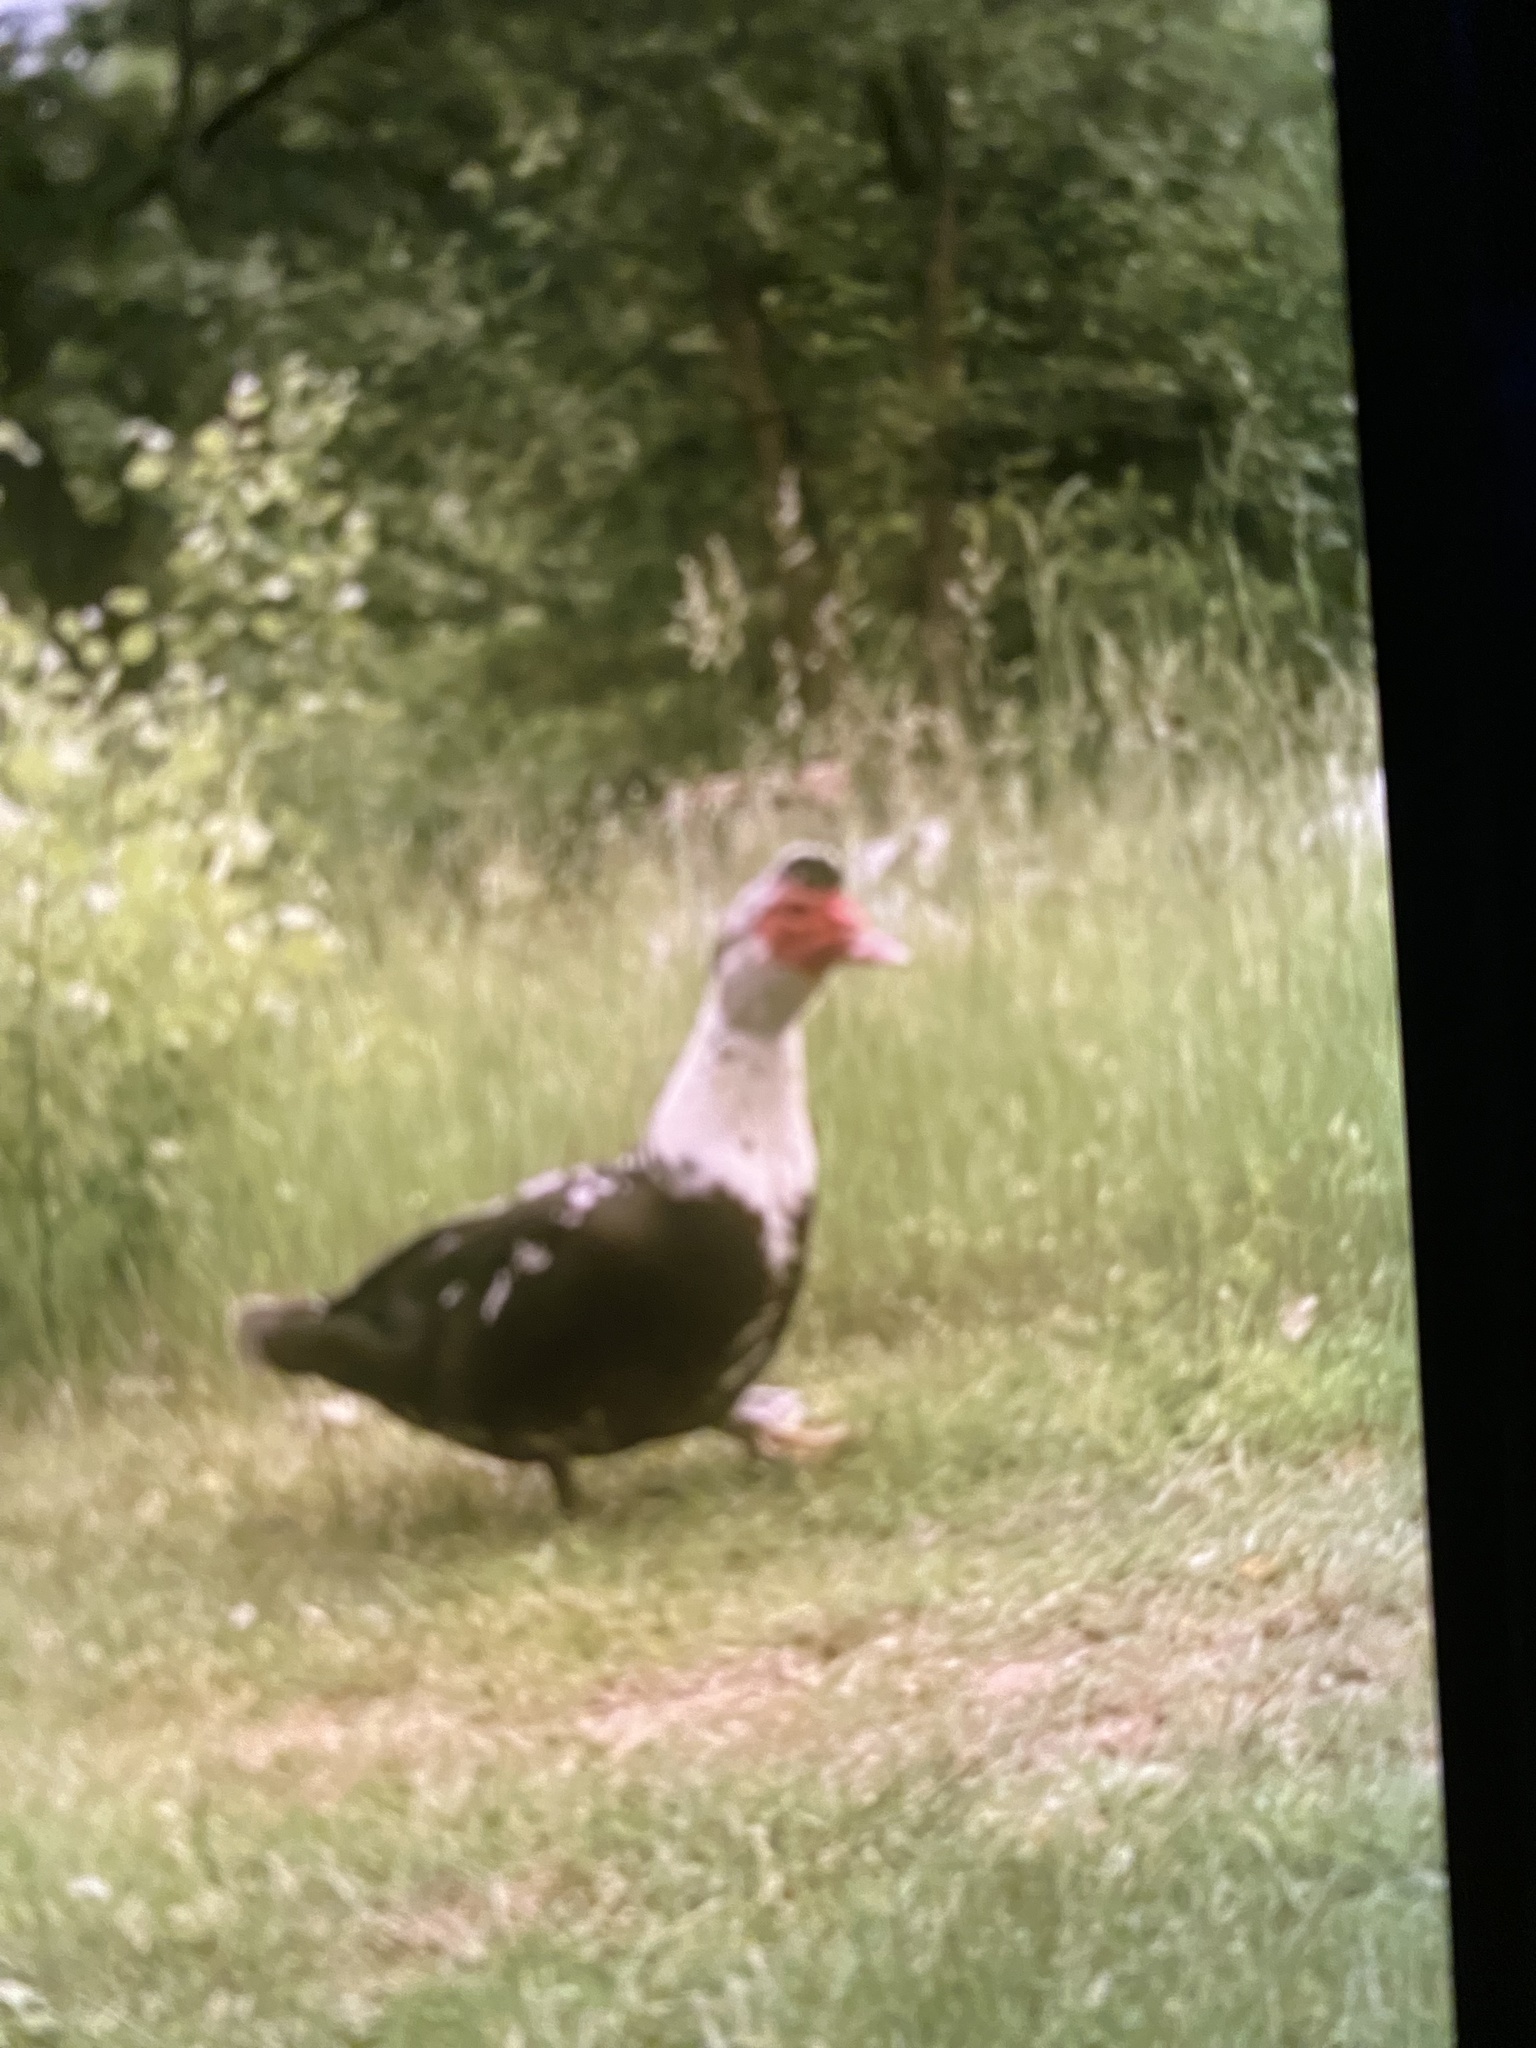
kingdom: Animalia
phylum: Chordata
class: Aves
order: Anseriformes
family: Anatidae
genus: Cairina
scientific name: Cairina moschata
